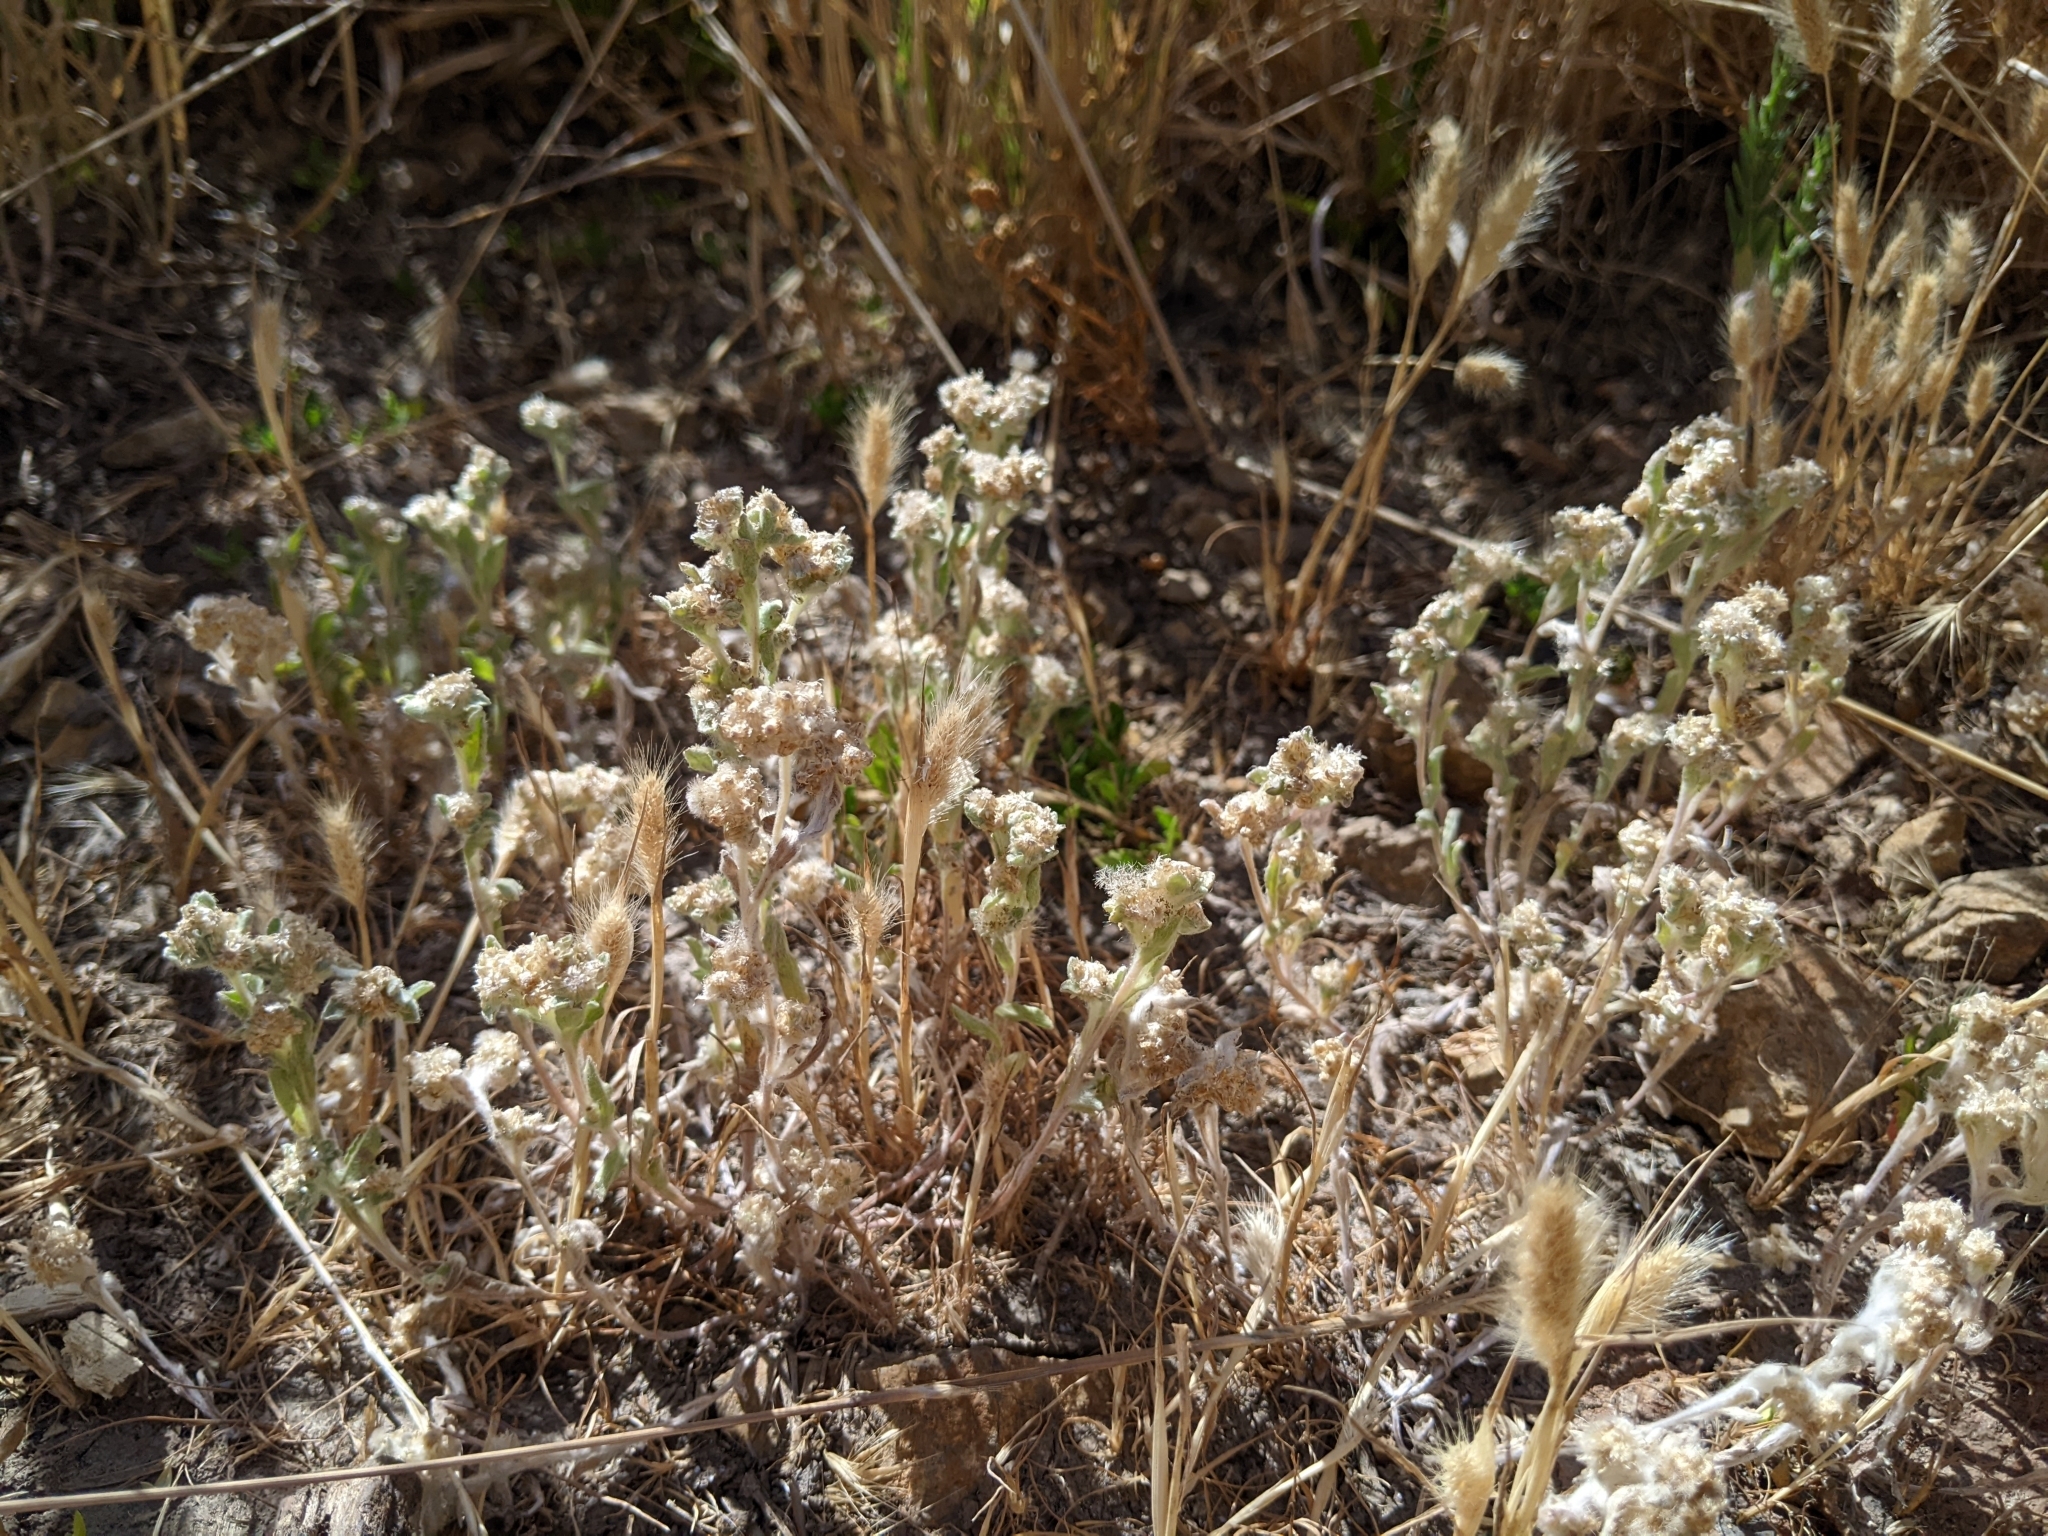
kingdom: Plantae
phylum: Tracheophyta
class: Magnoliopsida
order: Asterales
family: Asteraceae
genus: Gnaphalium
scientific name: Gnaphalium palustre
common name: Western marsh cudweed
